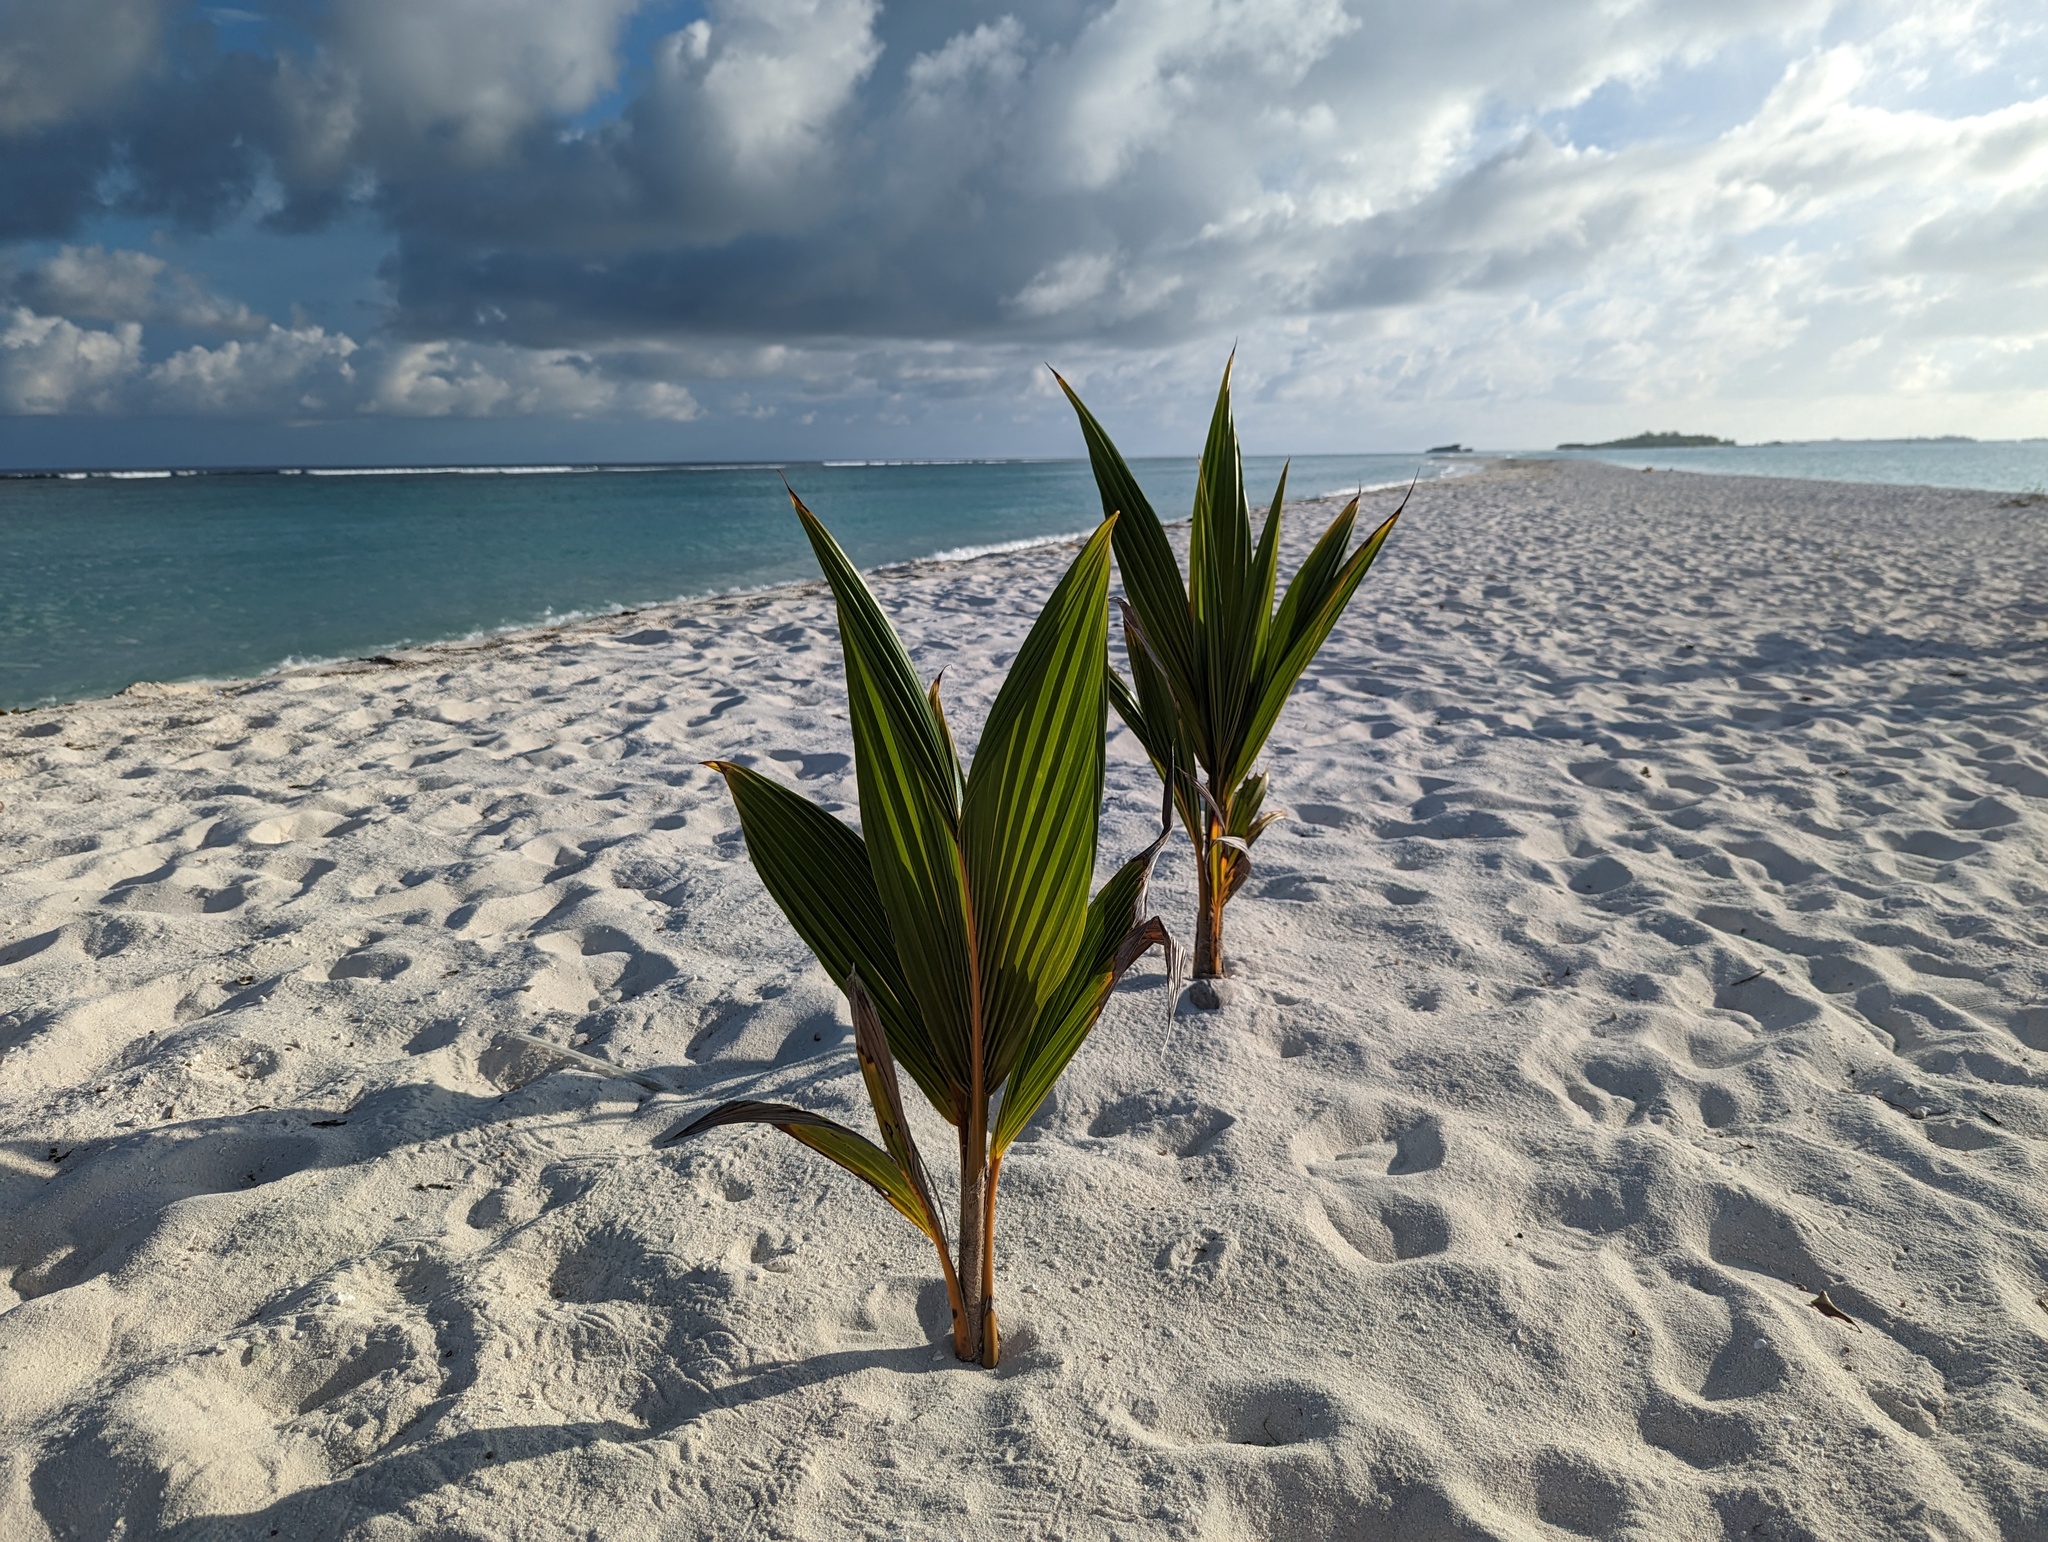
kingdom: Plantae
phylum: Tracheophyta
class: Liliopsida
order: Arecales
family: Arecaceae
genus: Cocos
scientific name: Cocos nucifera
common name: Coconut palm
